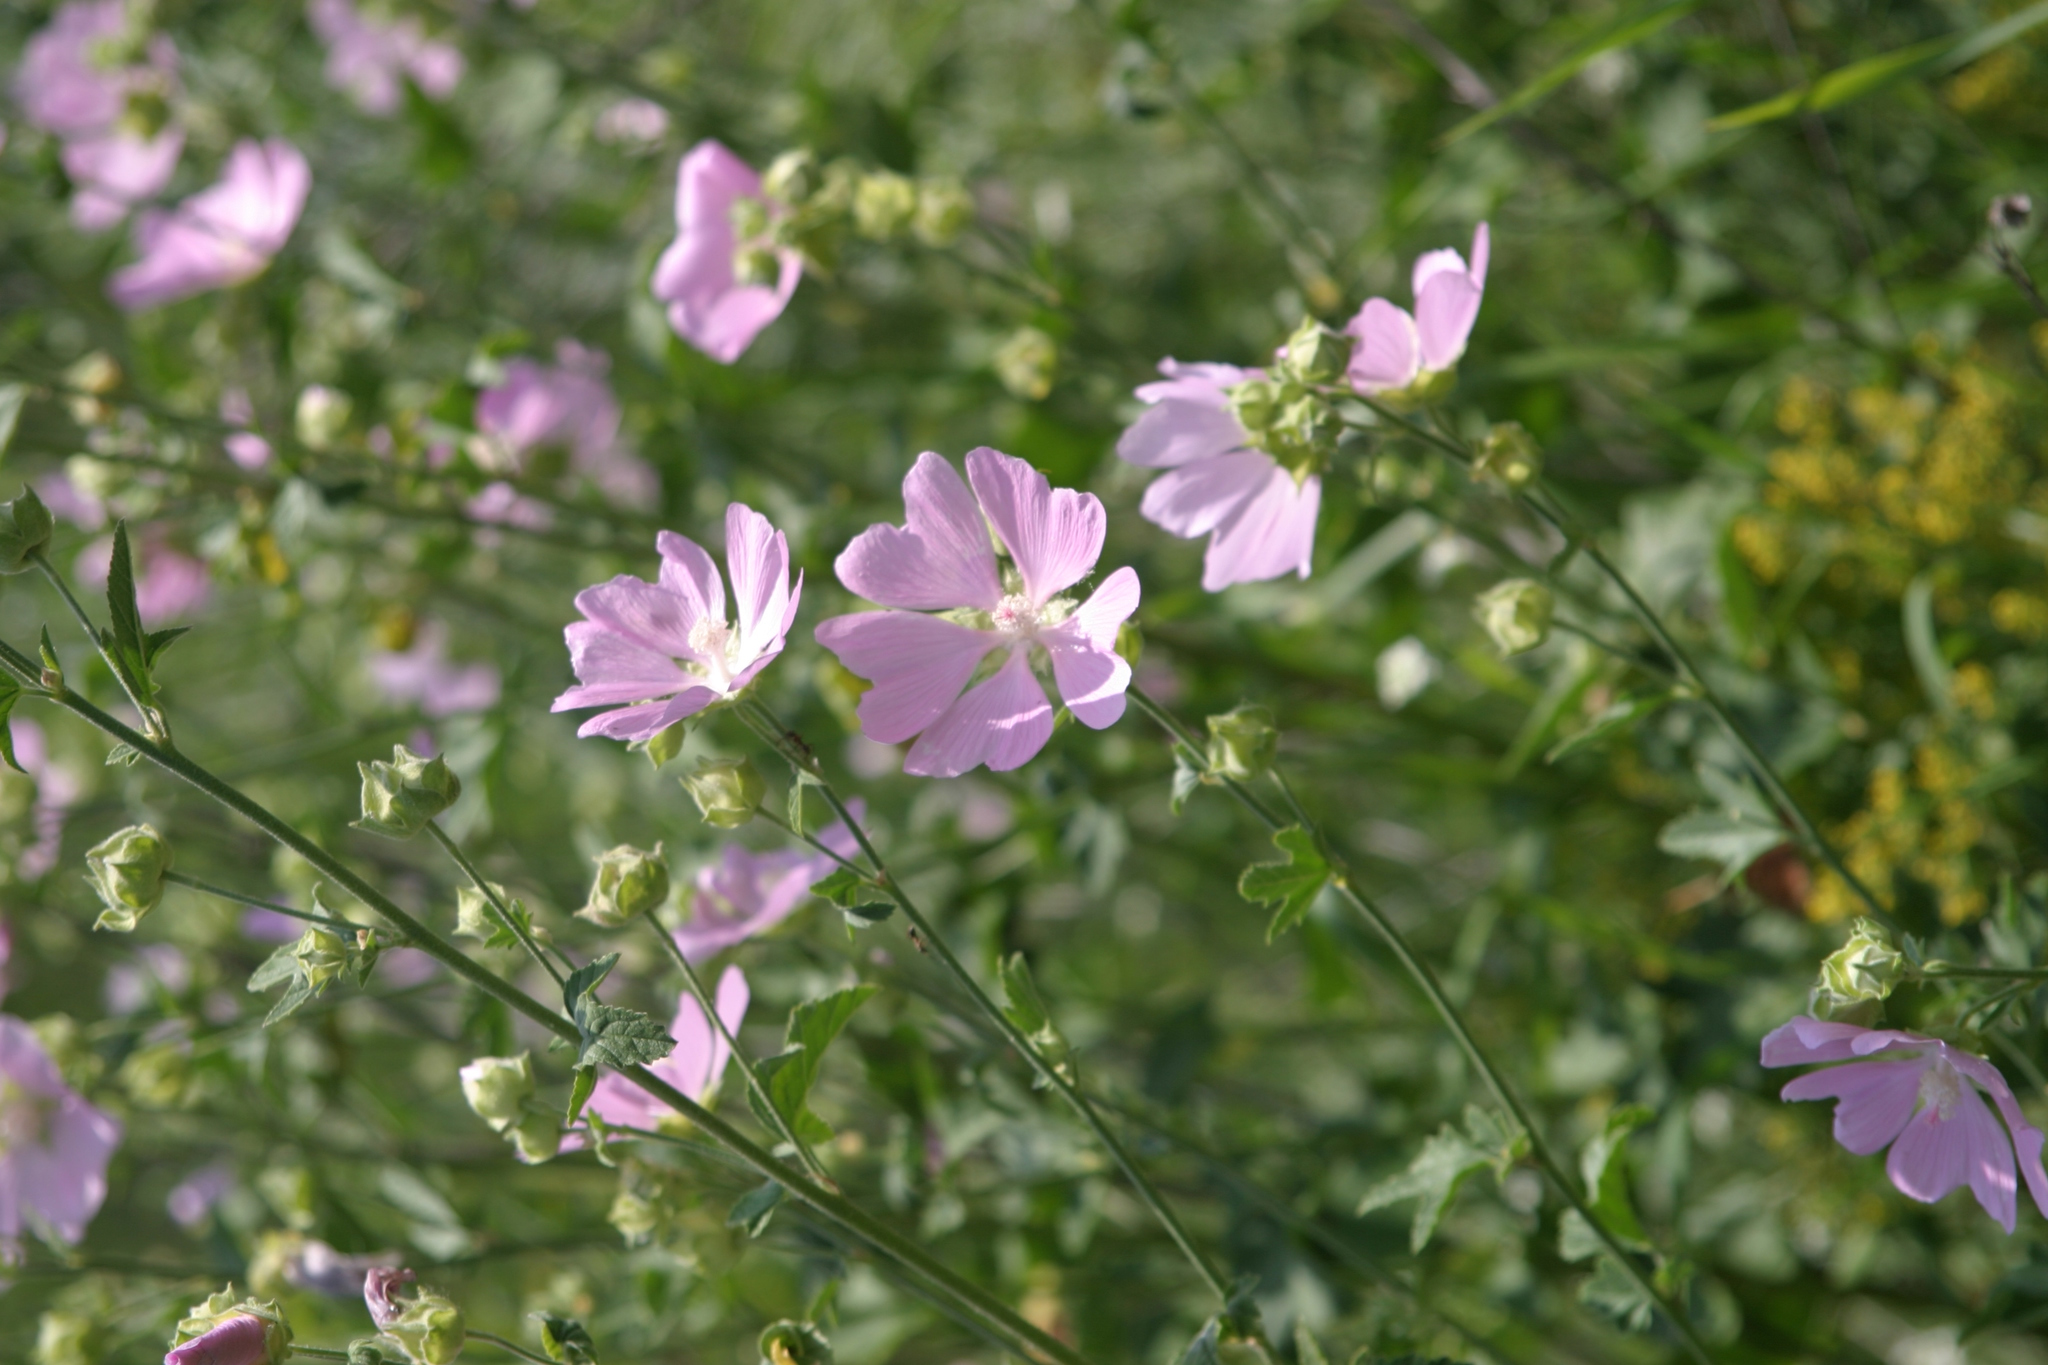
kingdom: Plantae
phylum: Tracheophyta
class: Magnoliopsida
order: Malvales
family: Malvaceae
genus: Malva
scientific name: Malva thuringiaca
